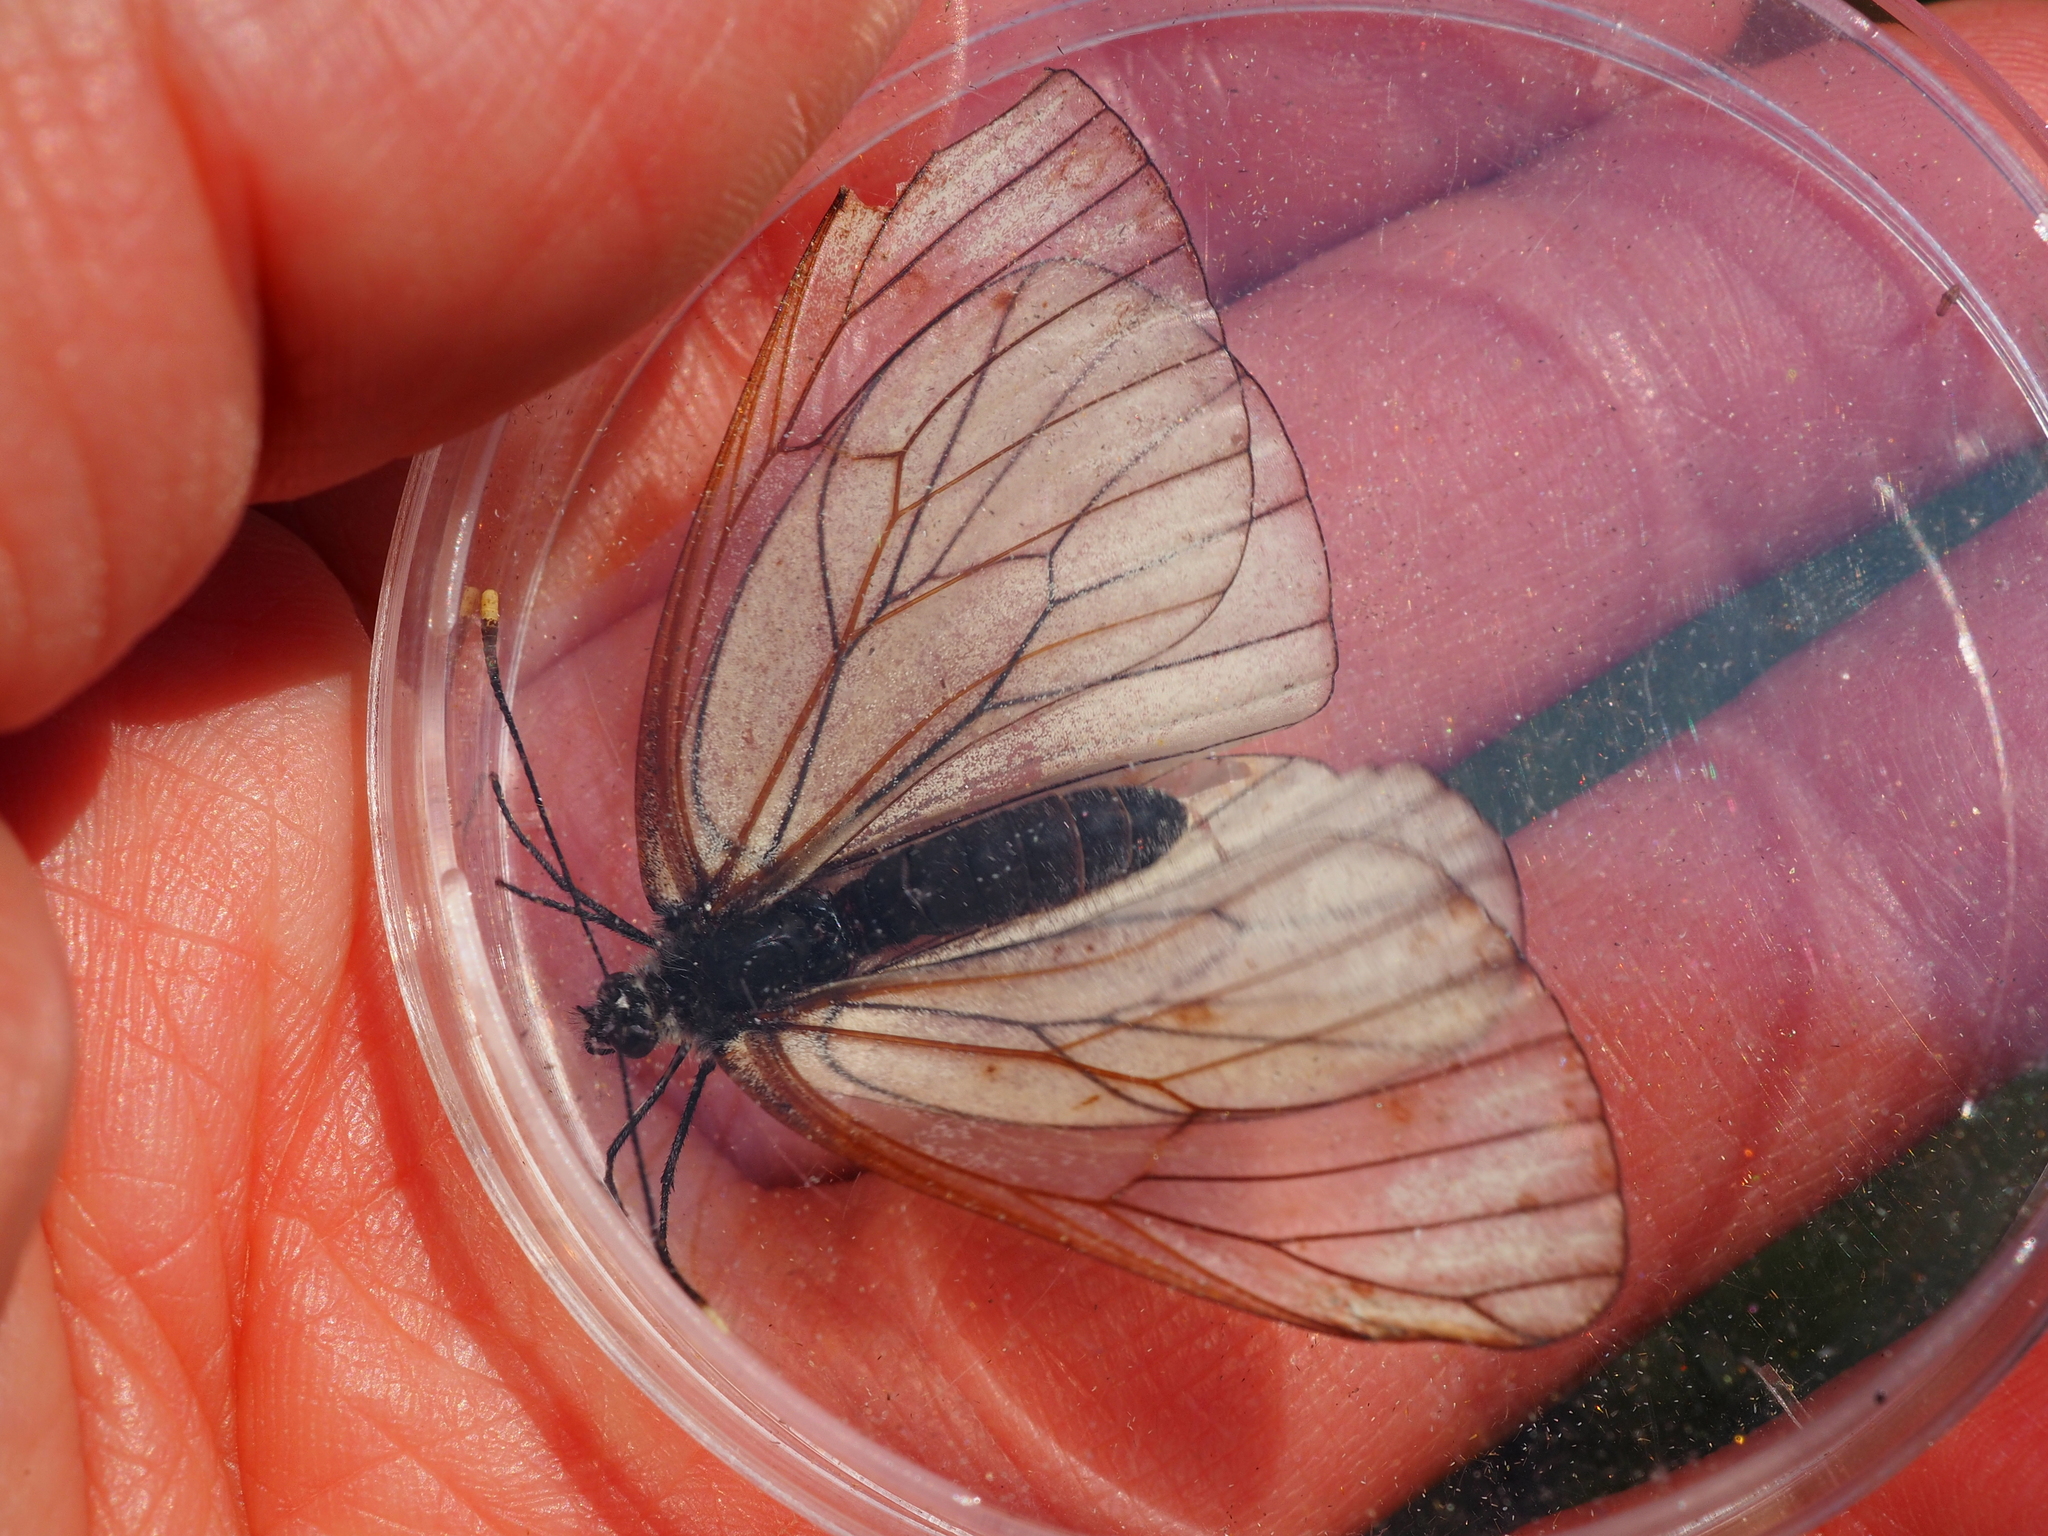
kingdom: Animalia
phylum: Arthropoda
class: Insecta
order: Lepidoptera
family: Pieridae
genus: Aporia
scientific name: Aporia crataegi
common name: Black-veined white
